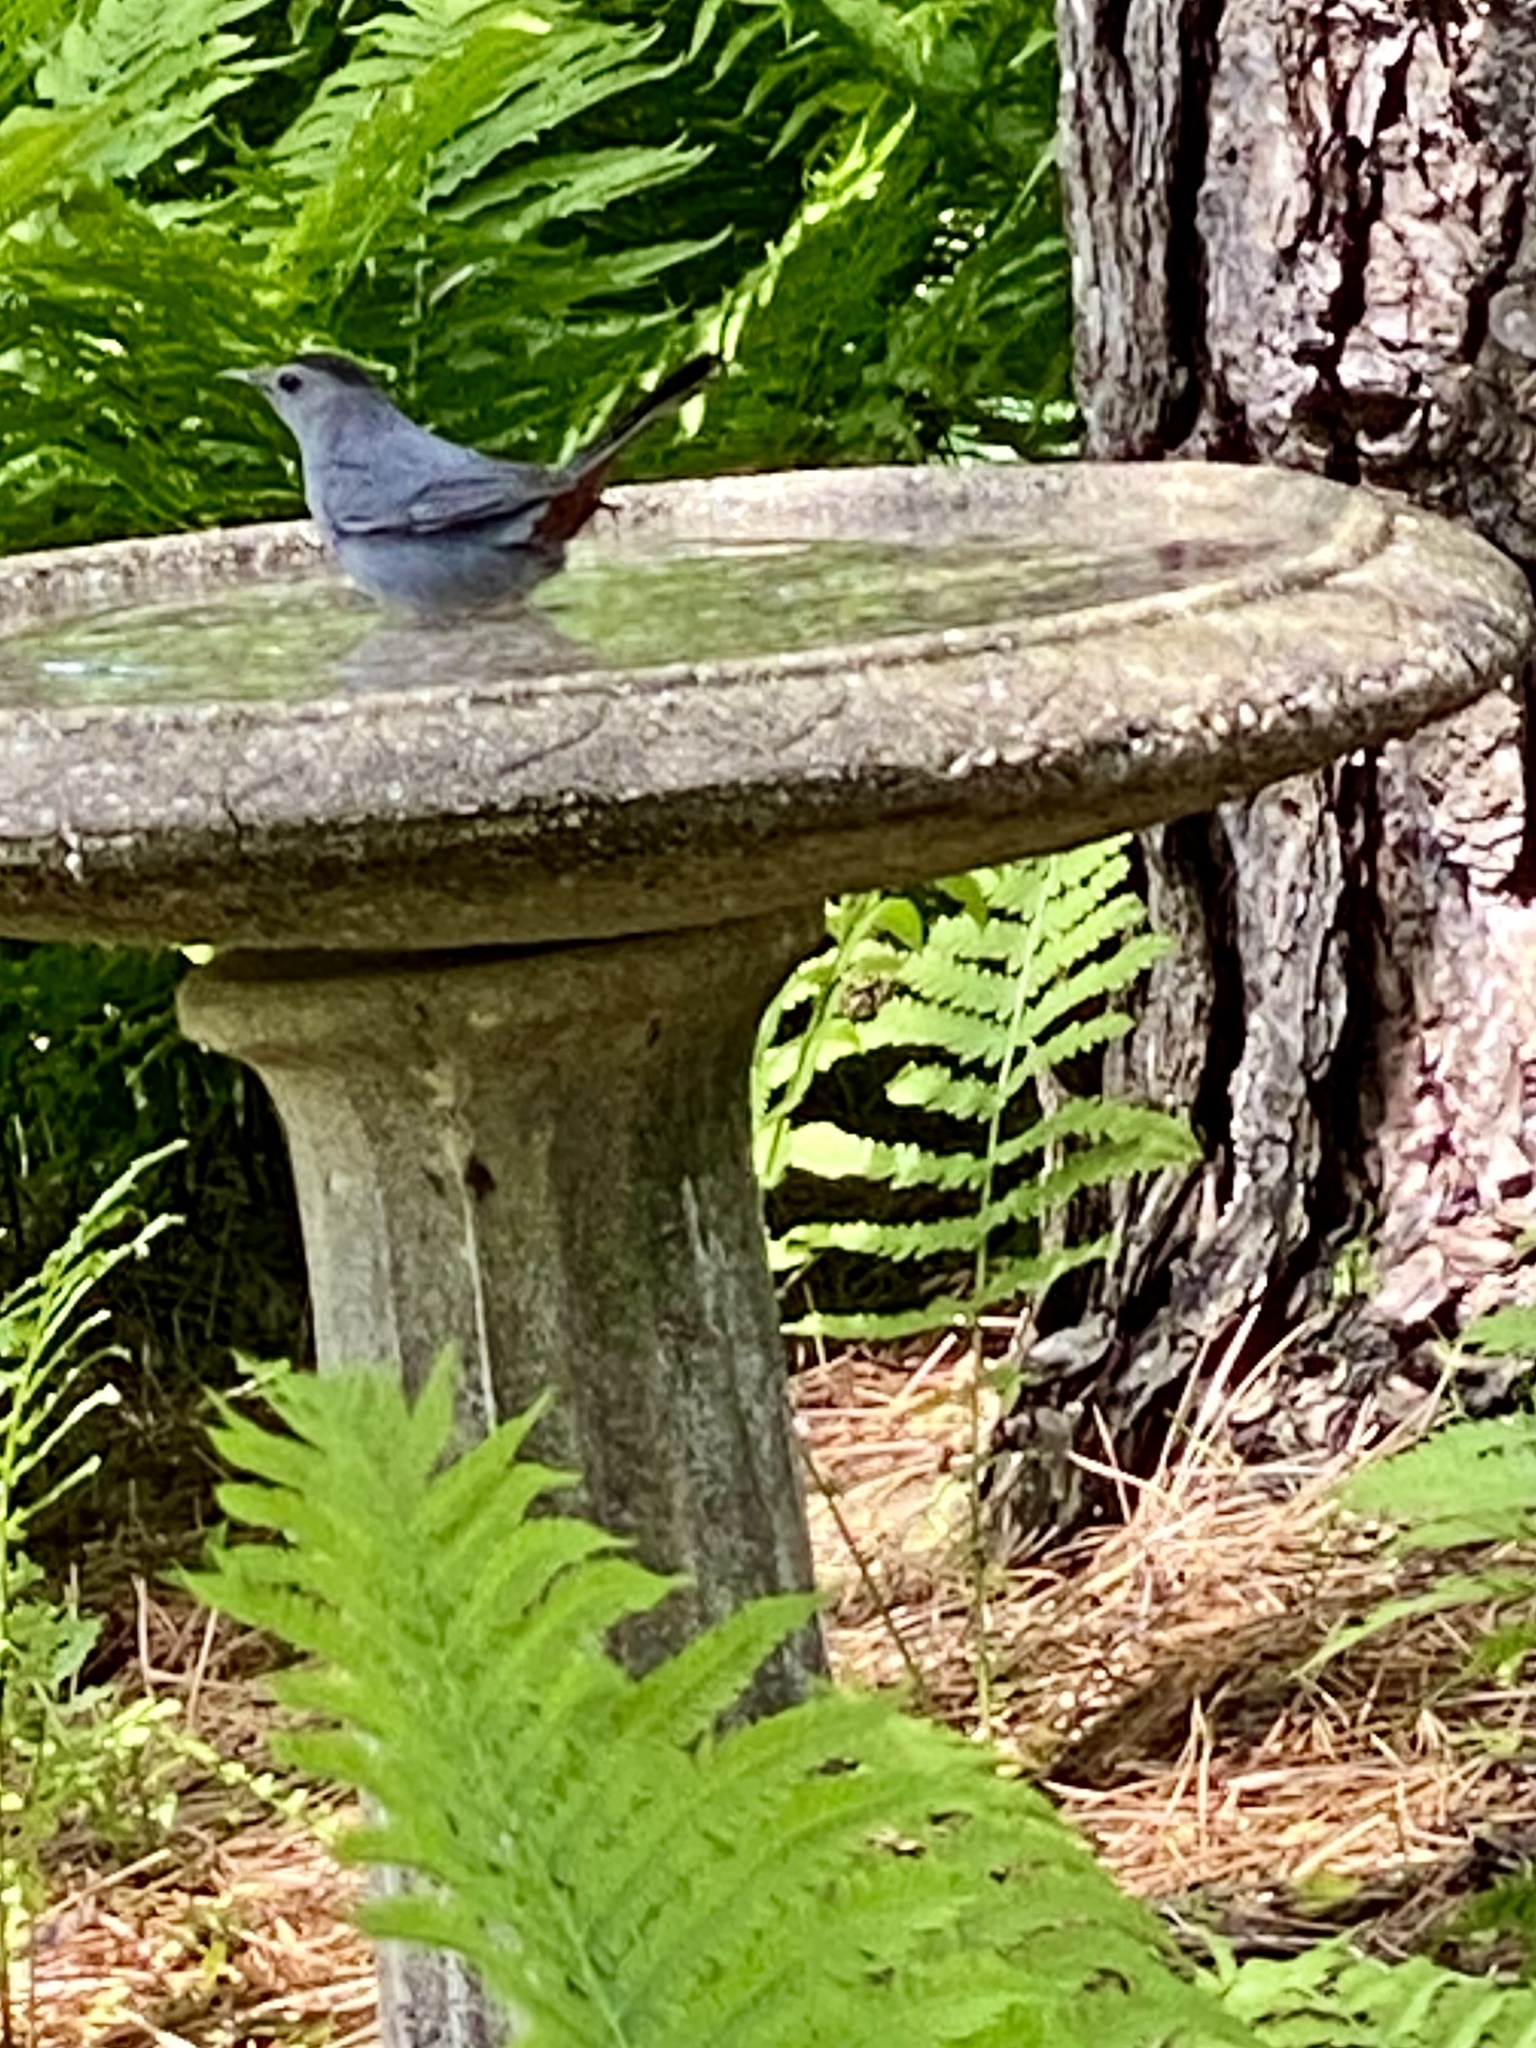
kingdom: Animalia
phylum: Chordata
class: Aves
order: Passeriformes
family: Mimidae
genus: Dumetella
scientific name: Dumetella carolinensis
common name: Gray catbird
